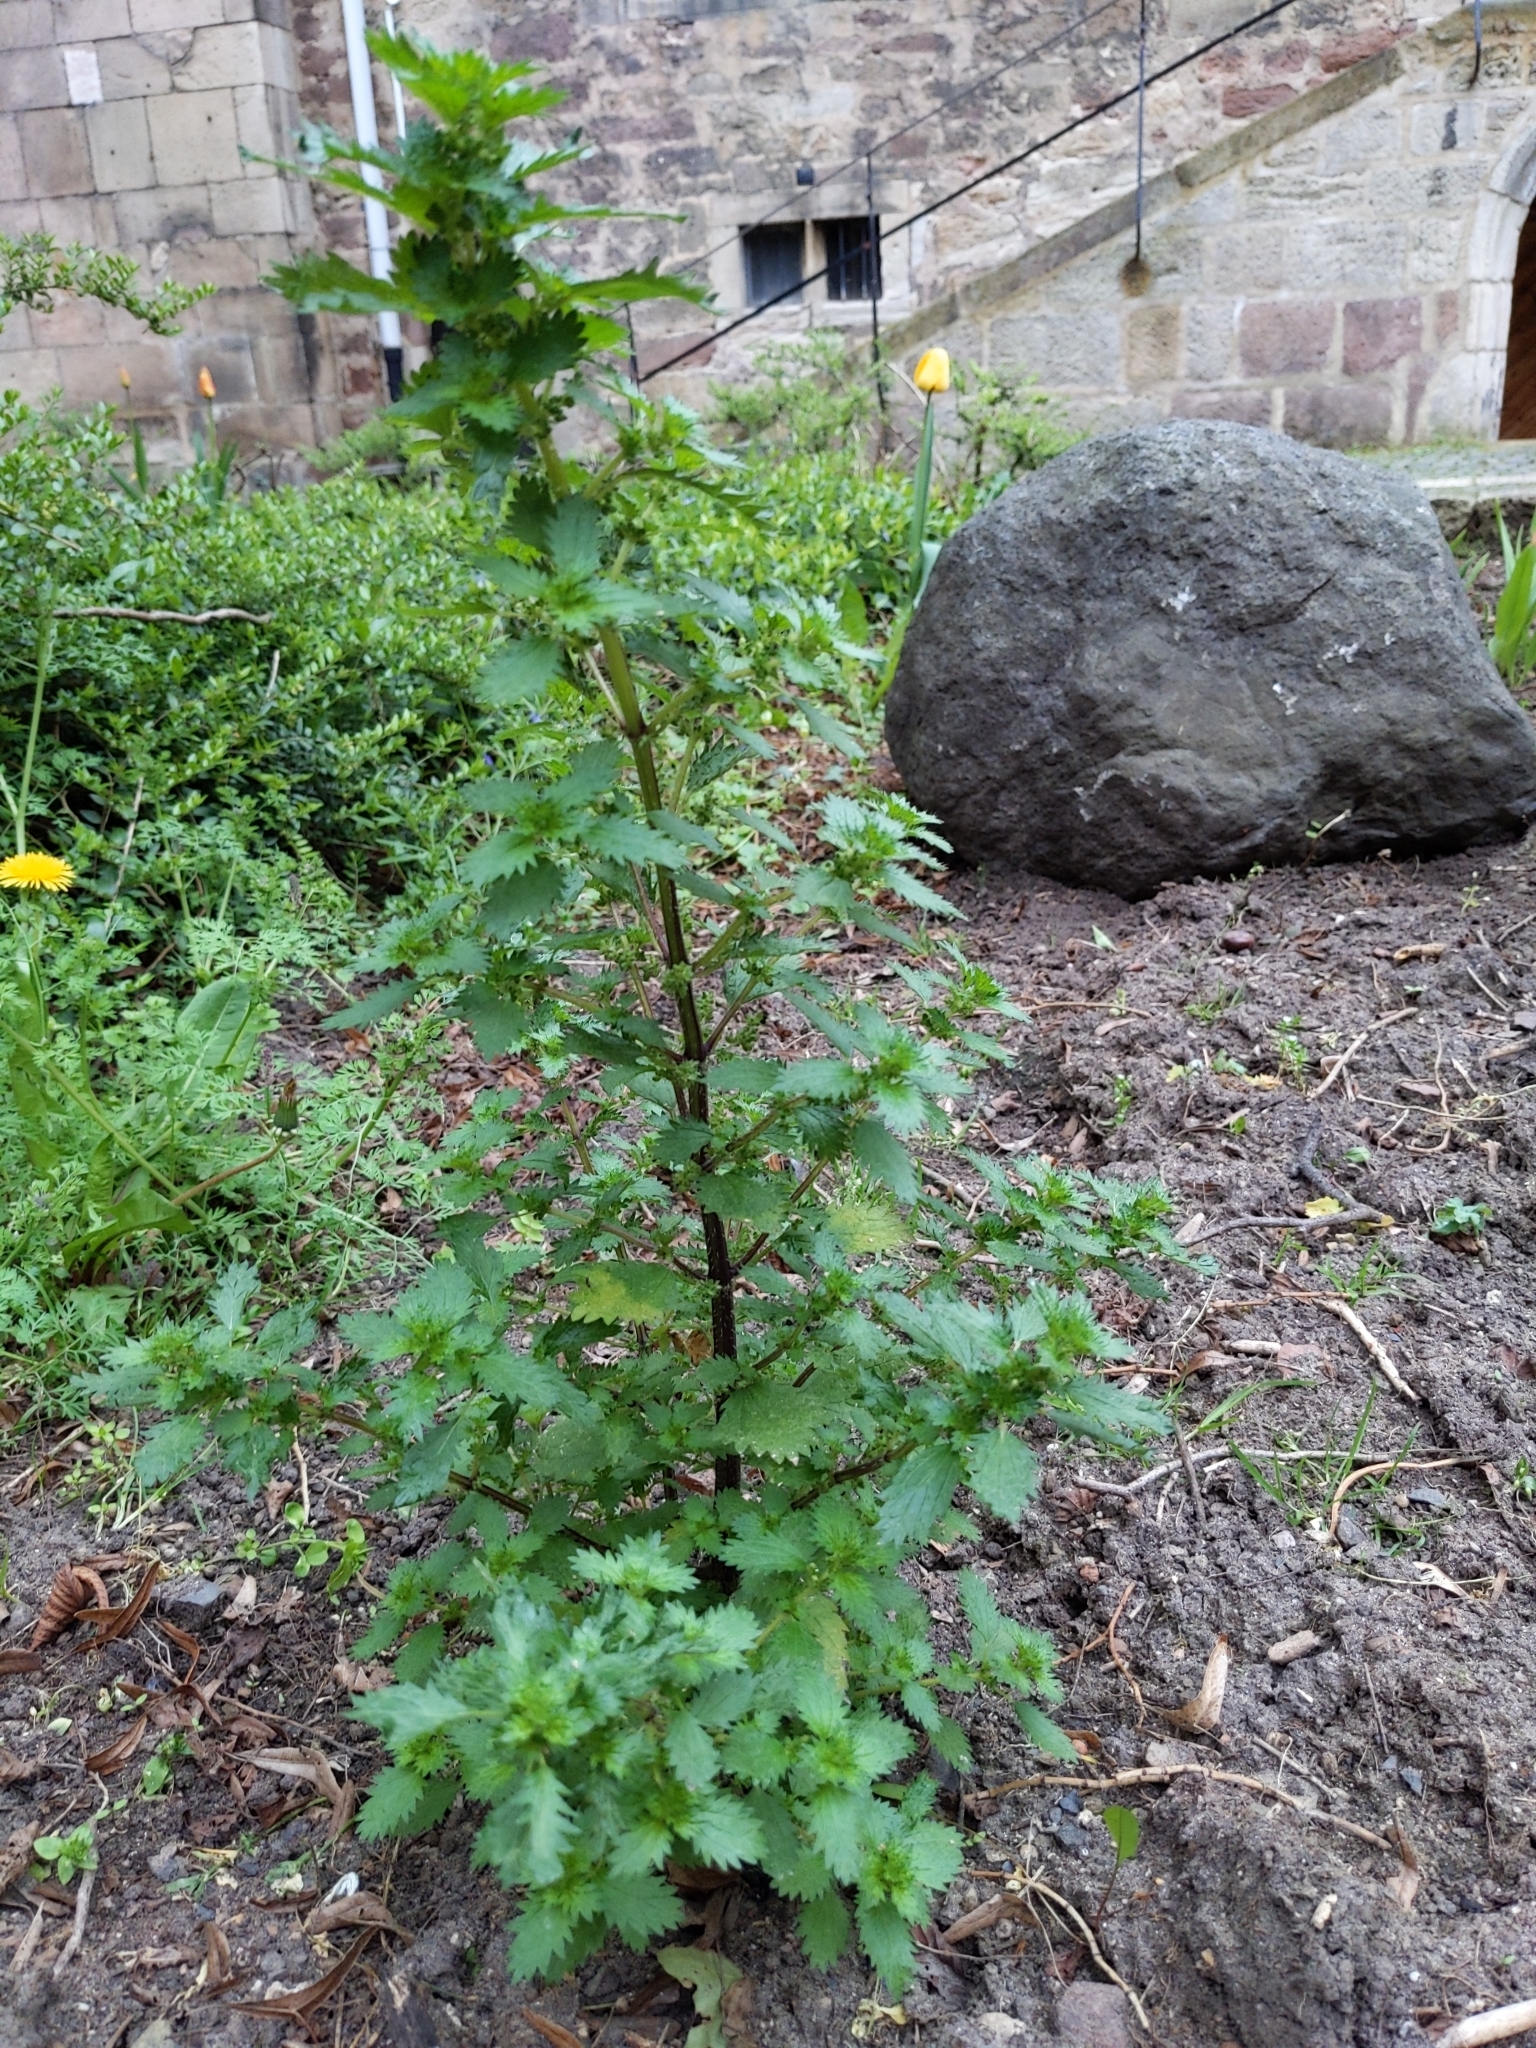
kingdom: Plantae
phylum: Tracheophyta
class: Magnoliopsida
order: Rosales
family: Urticaceae
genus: Urtica
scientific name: Urtica urens
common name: Dwarf nettle
